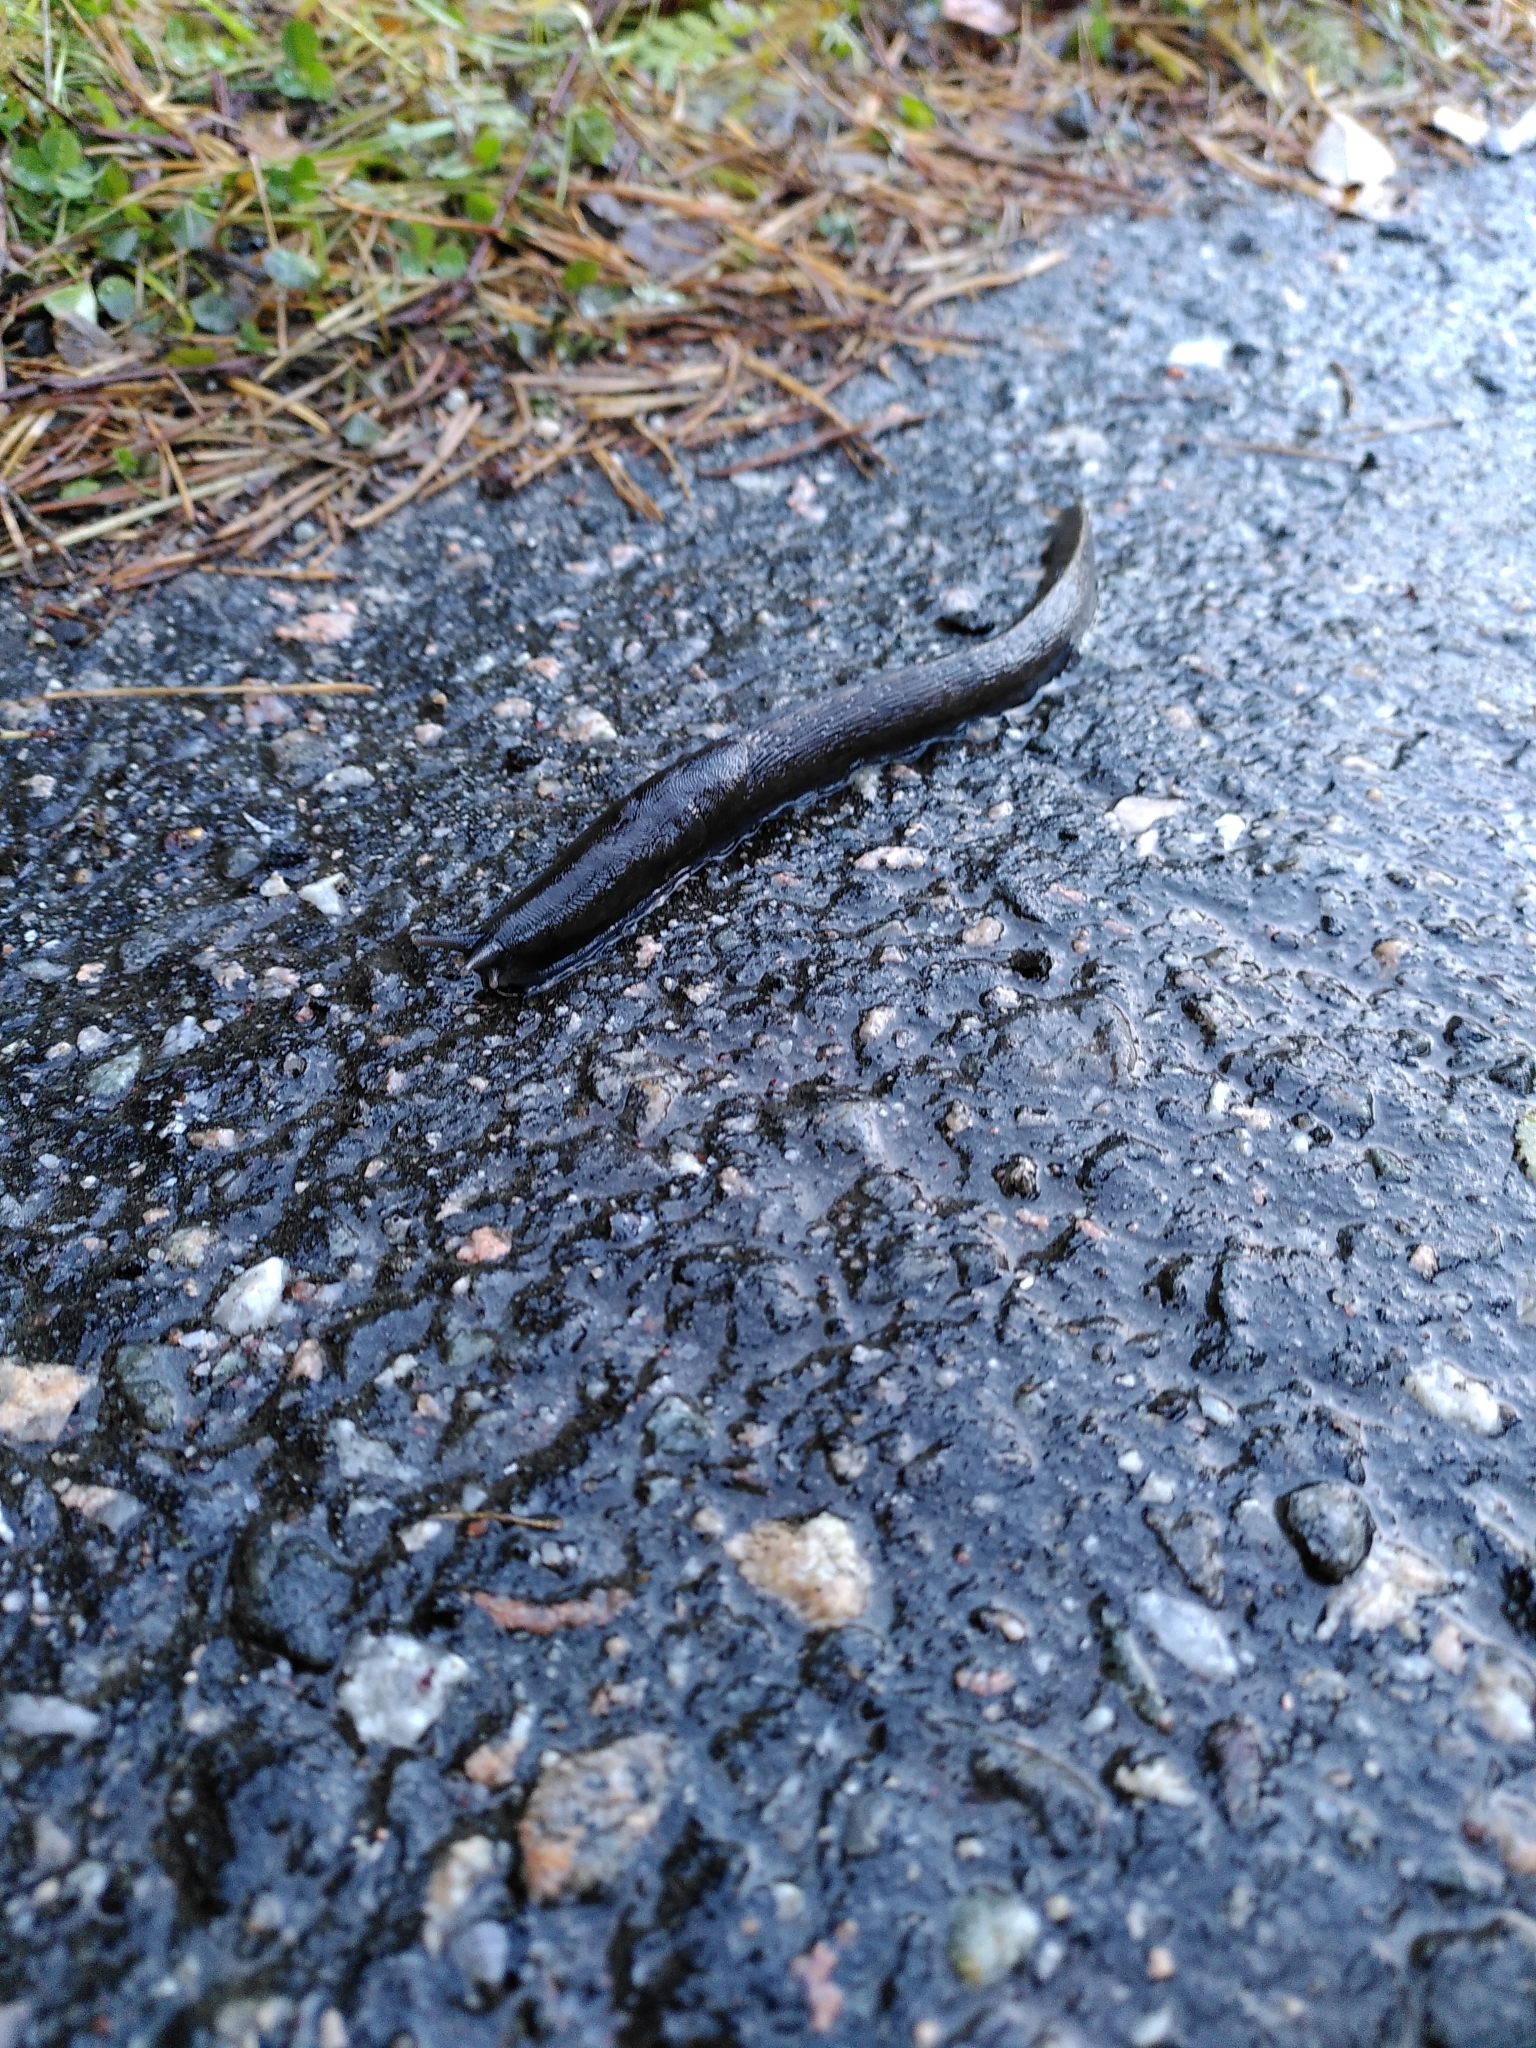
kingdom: Animalia
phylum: Mollusca
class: Gastropoda
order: Stylommatophora
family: Limacidae
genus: Limax
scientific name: Limax cinereoniger
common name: Ash-black slug
